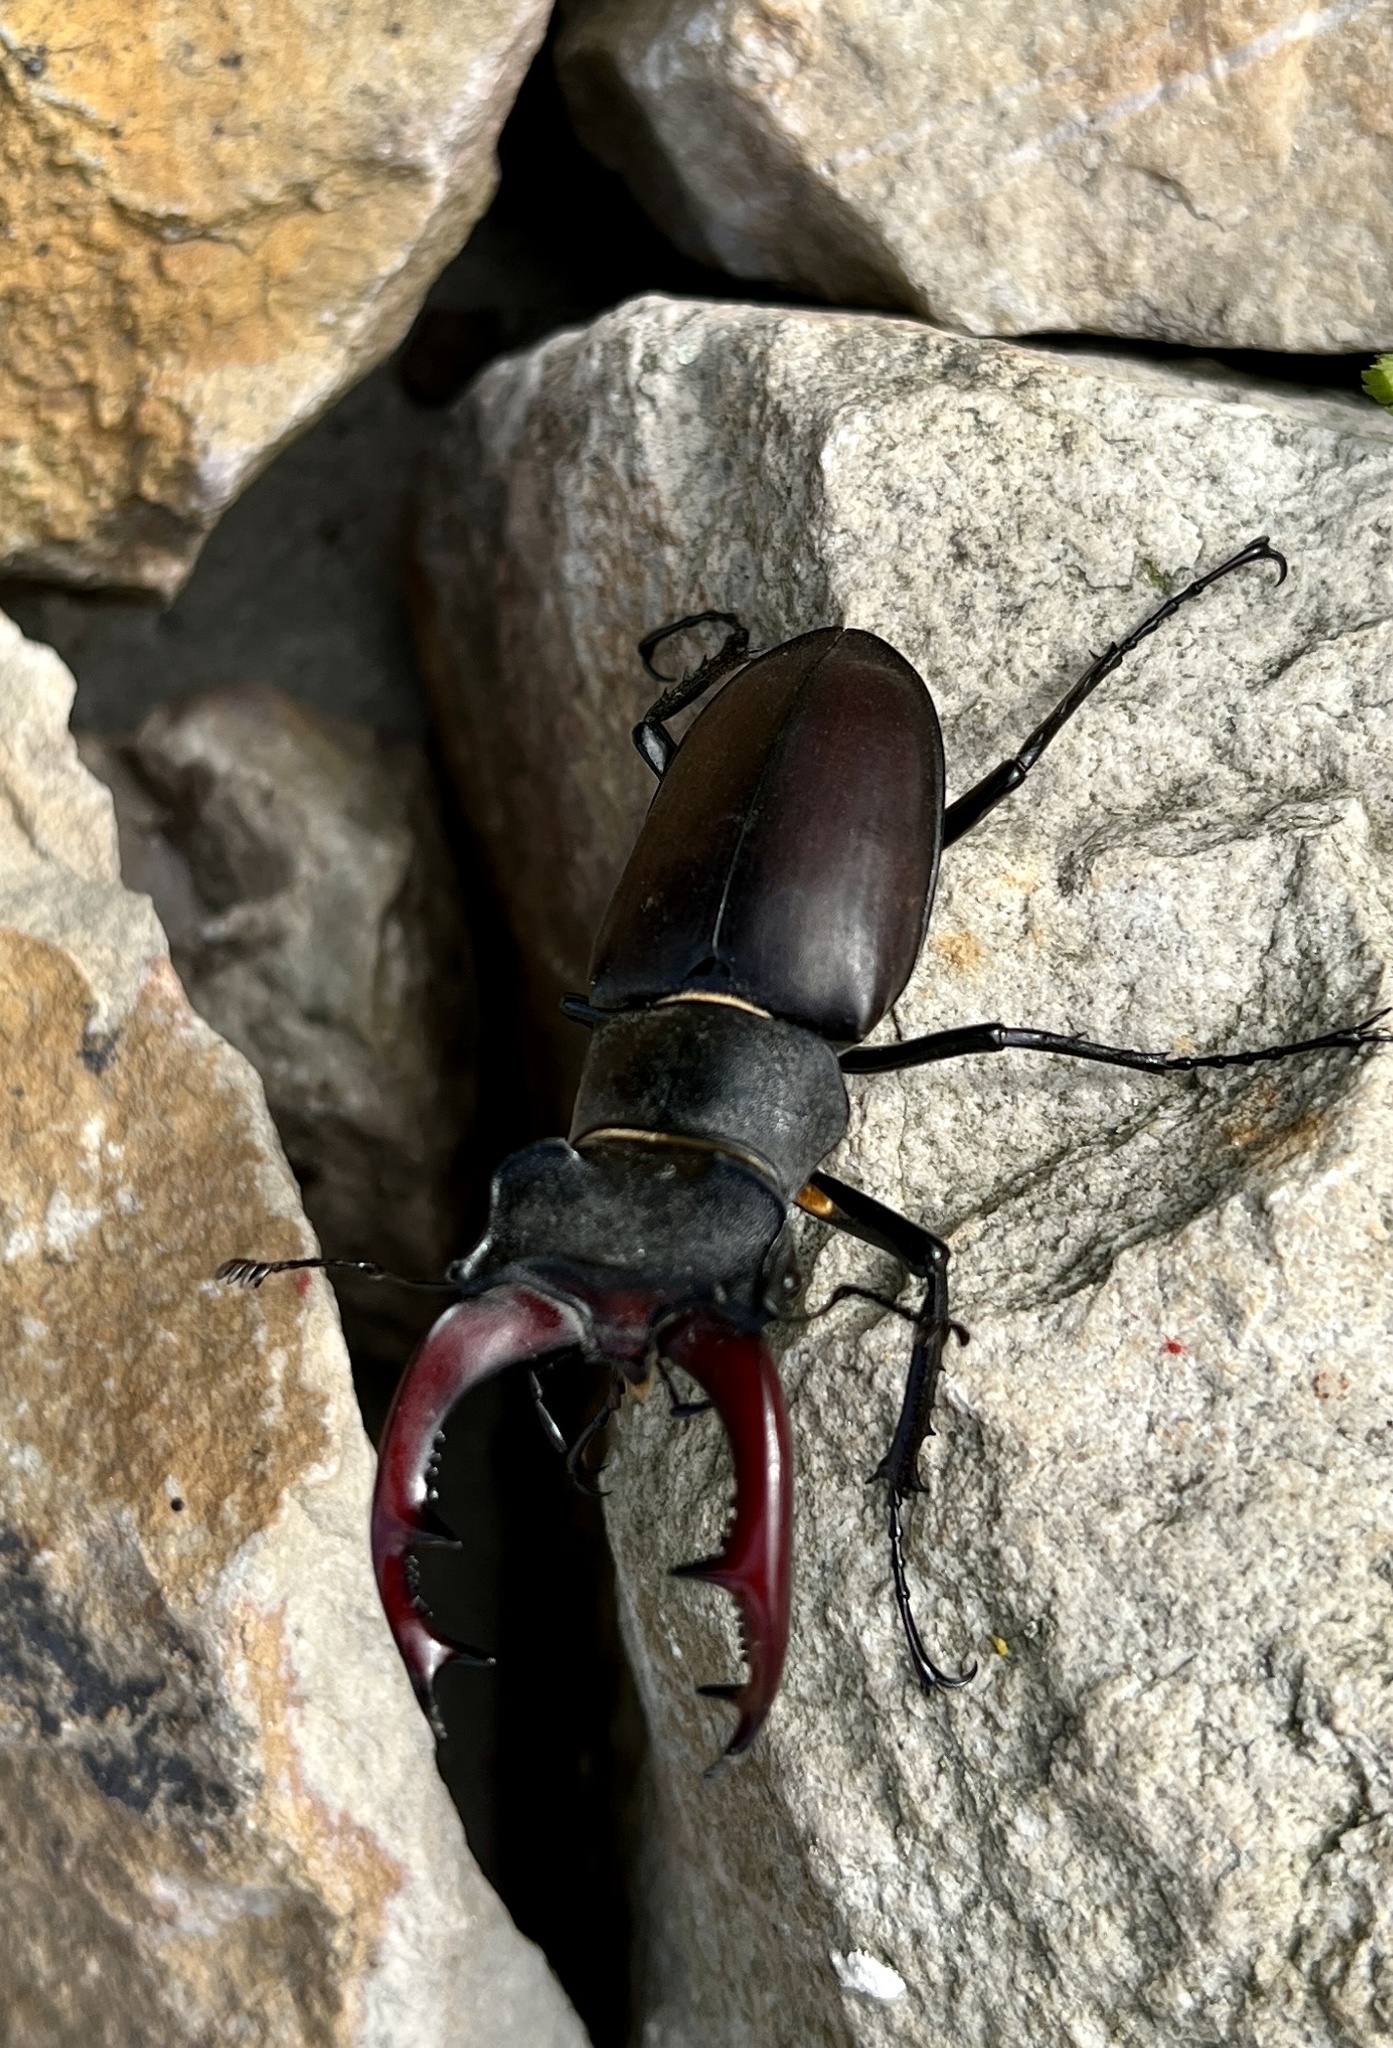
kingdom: Animalia
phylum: Arthropoda
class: Insecta
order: Coleoptera
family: Lucanidae
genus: Lucanus
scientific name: Lucanus cervus
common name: Stag beetle
